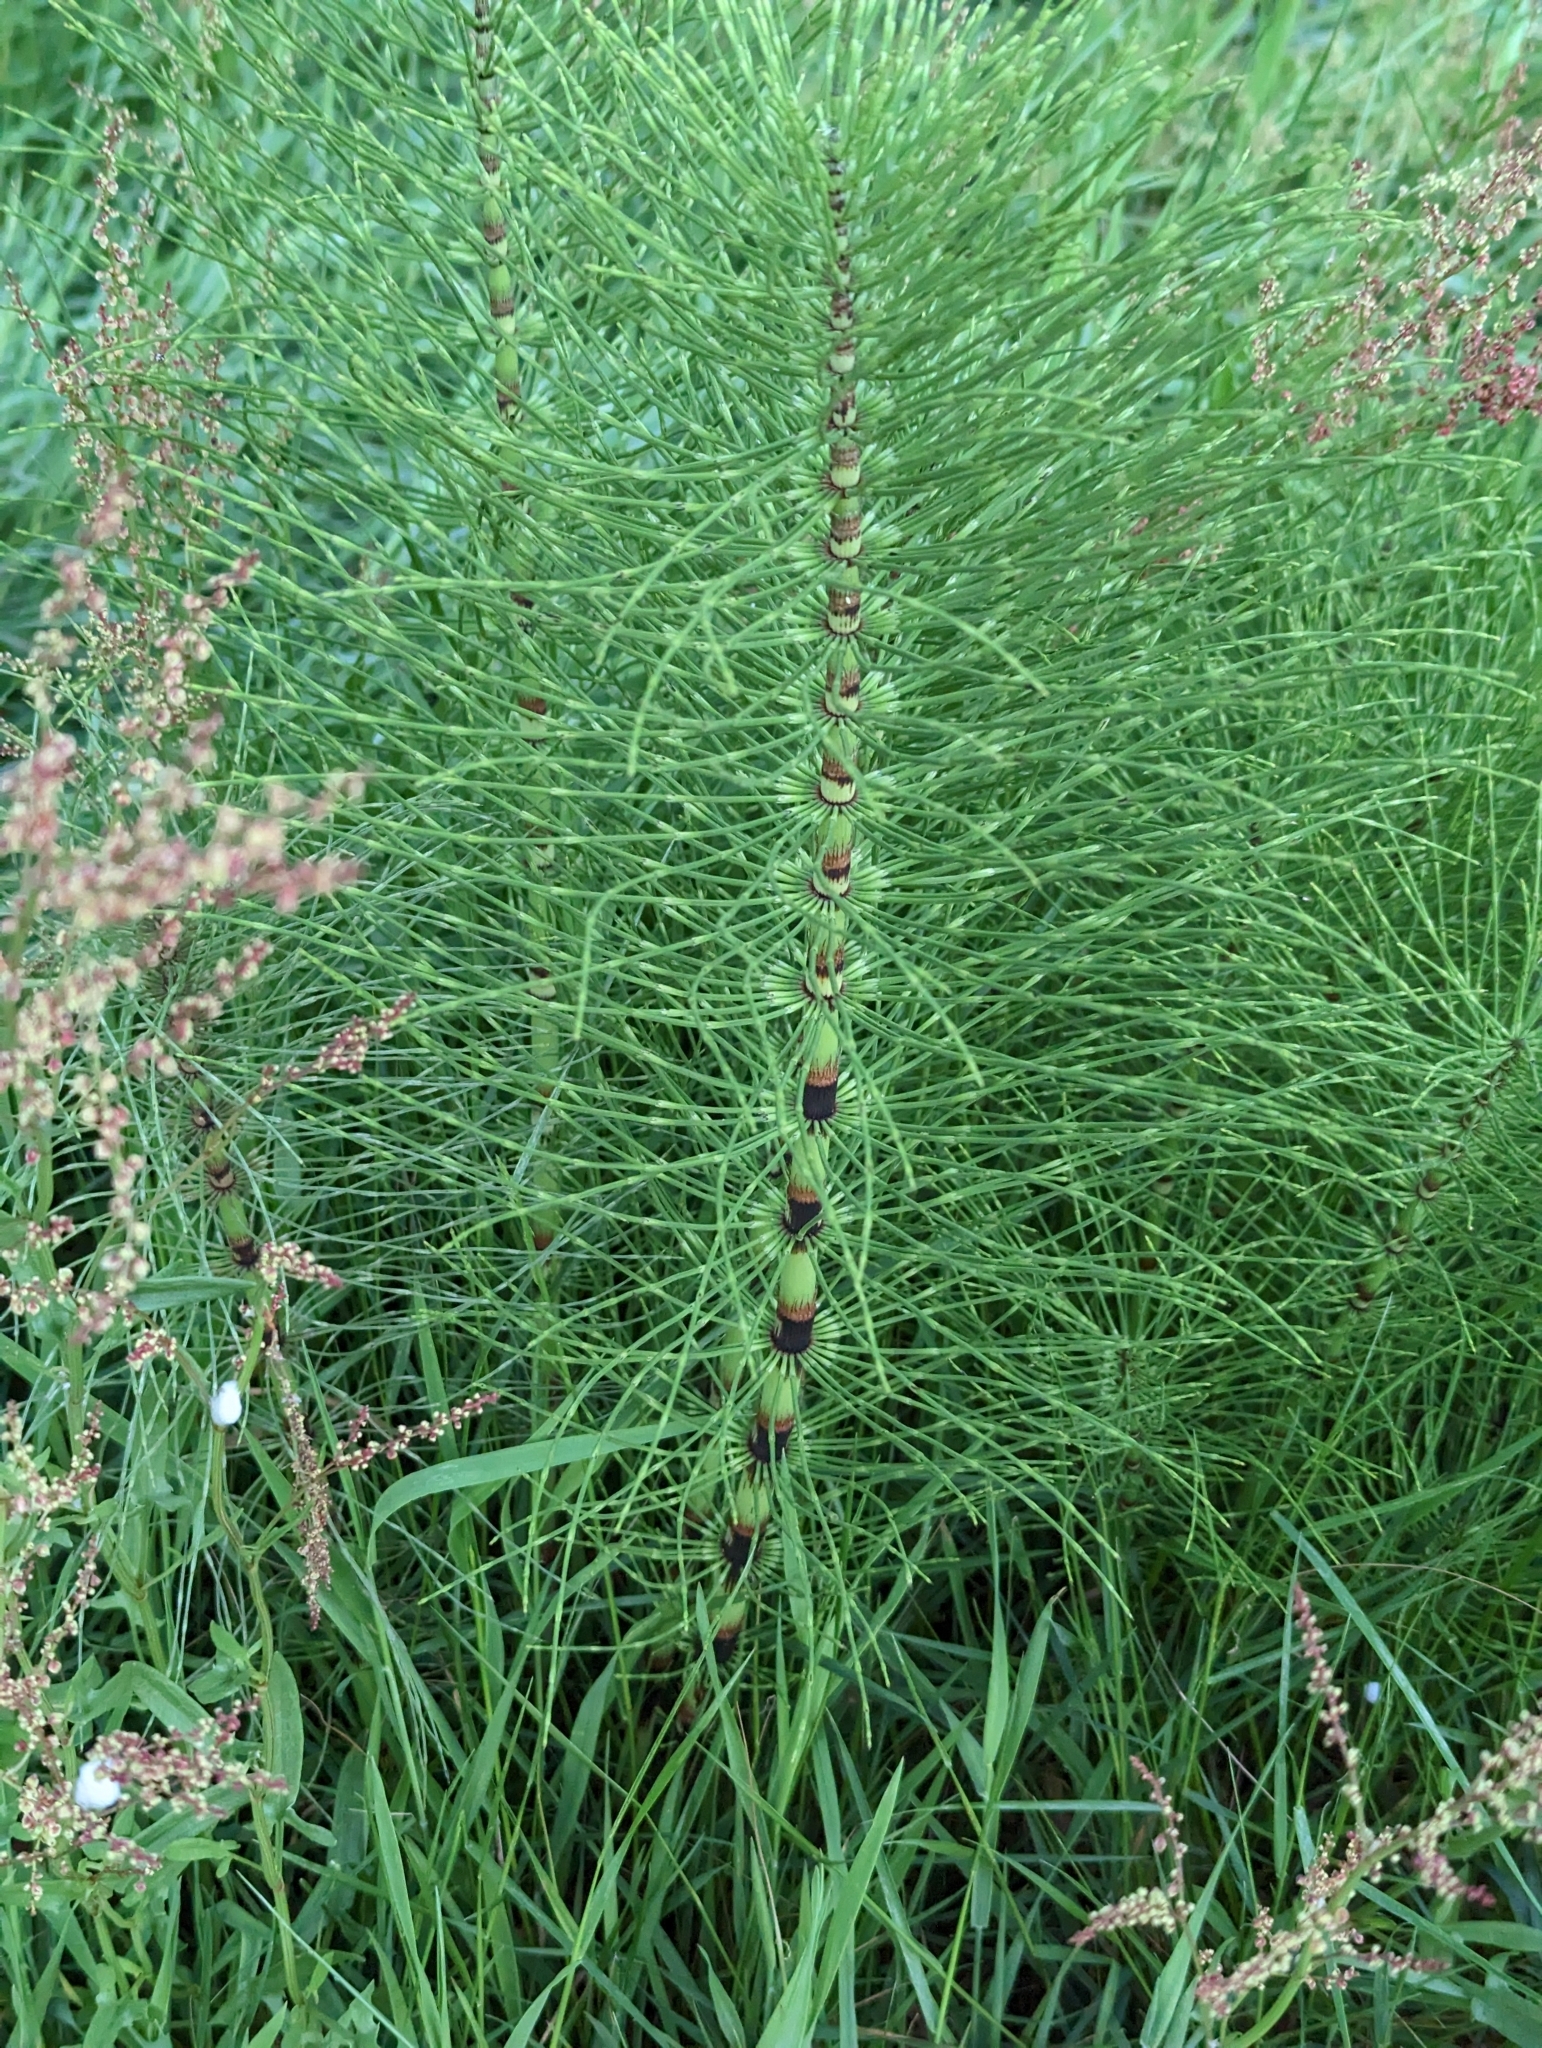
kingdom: Plantae
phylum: Tracheophyta
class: Polypodiopsida
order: Equisetales
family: Equisetaceae
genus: Equisetum
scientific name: Equisetum braunii
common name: Braun's horsetail
